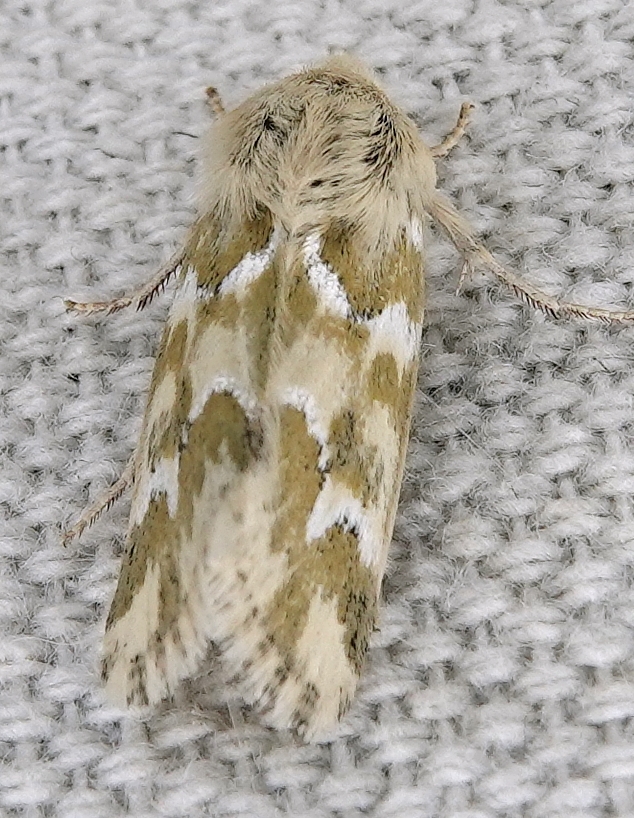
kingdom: Animalia
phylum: Arthropoda
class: Insecta
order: Lepidoptera
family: Noctuidae
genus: Schinia
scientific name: Schinia meadi
